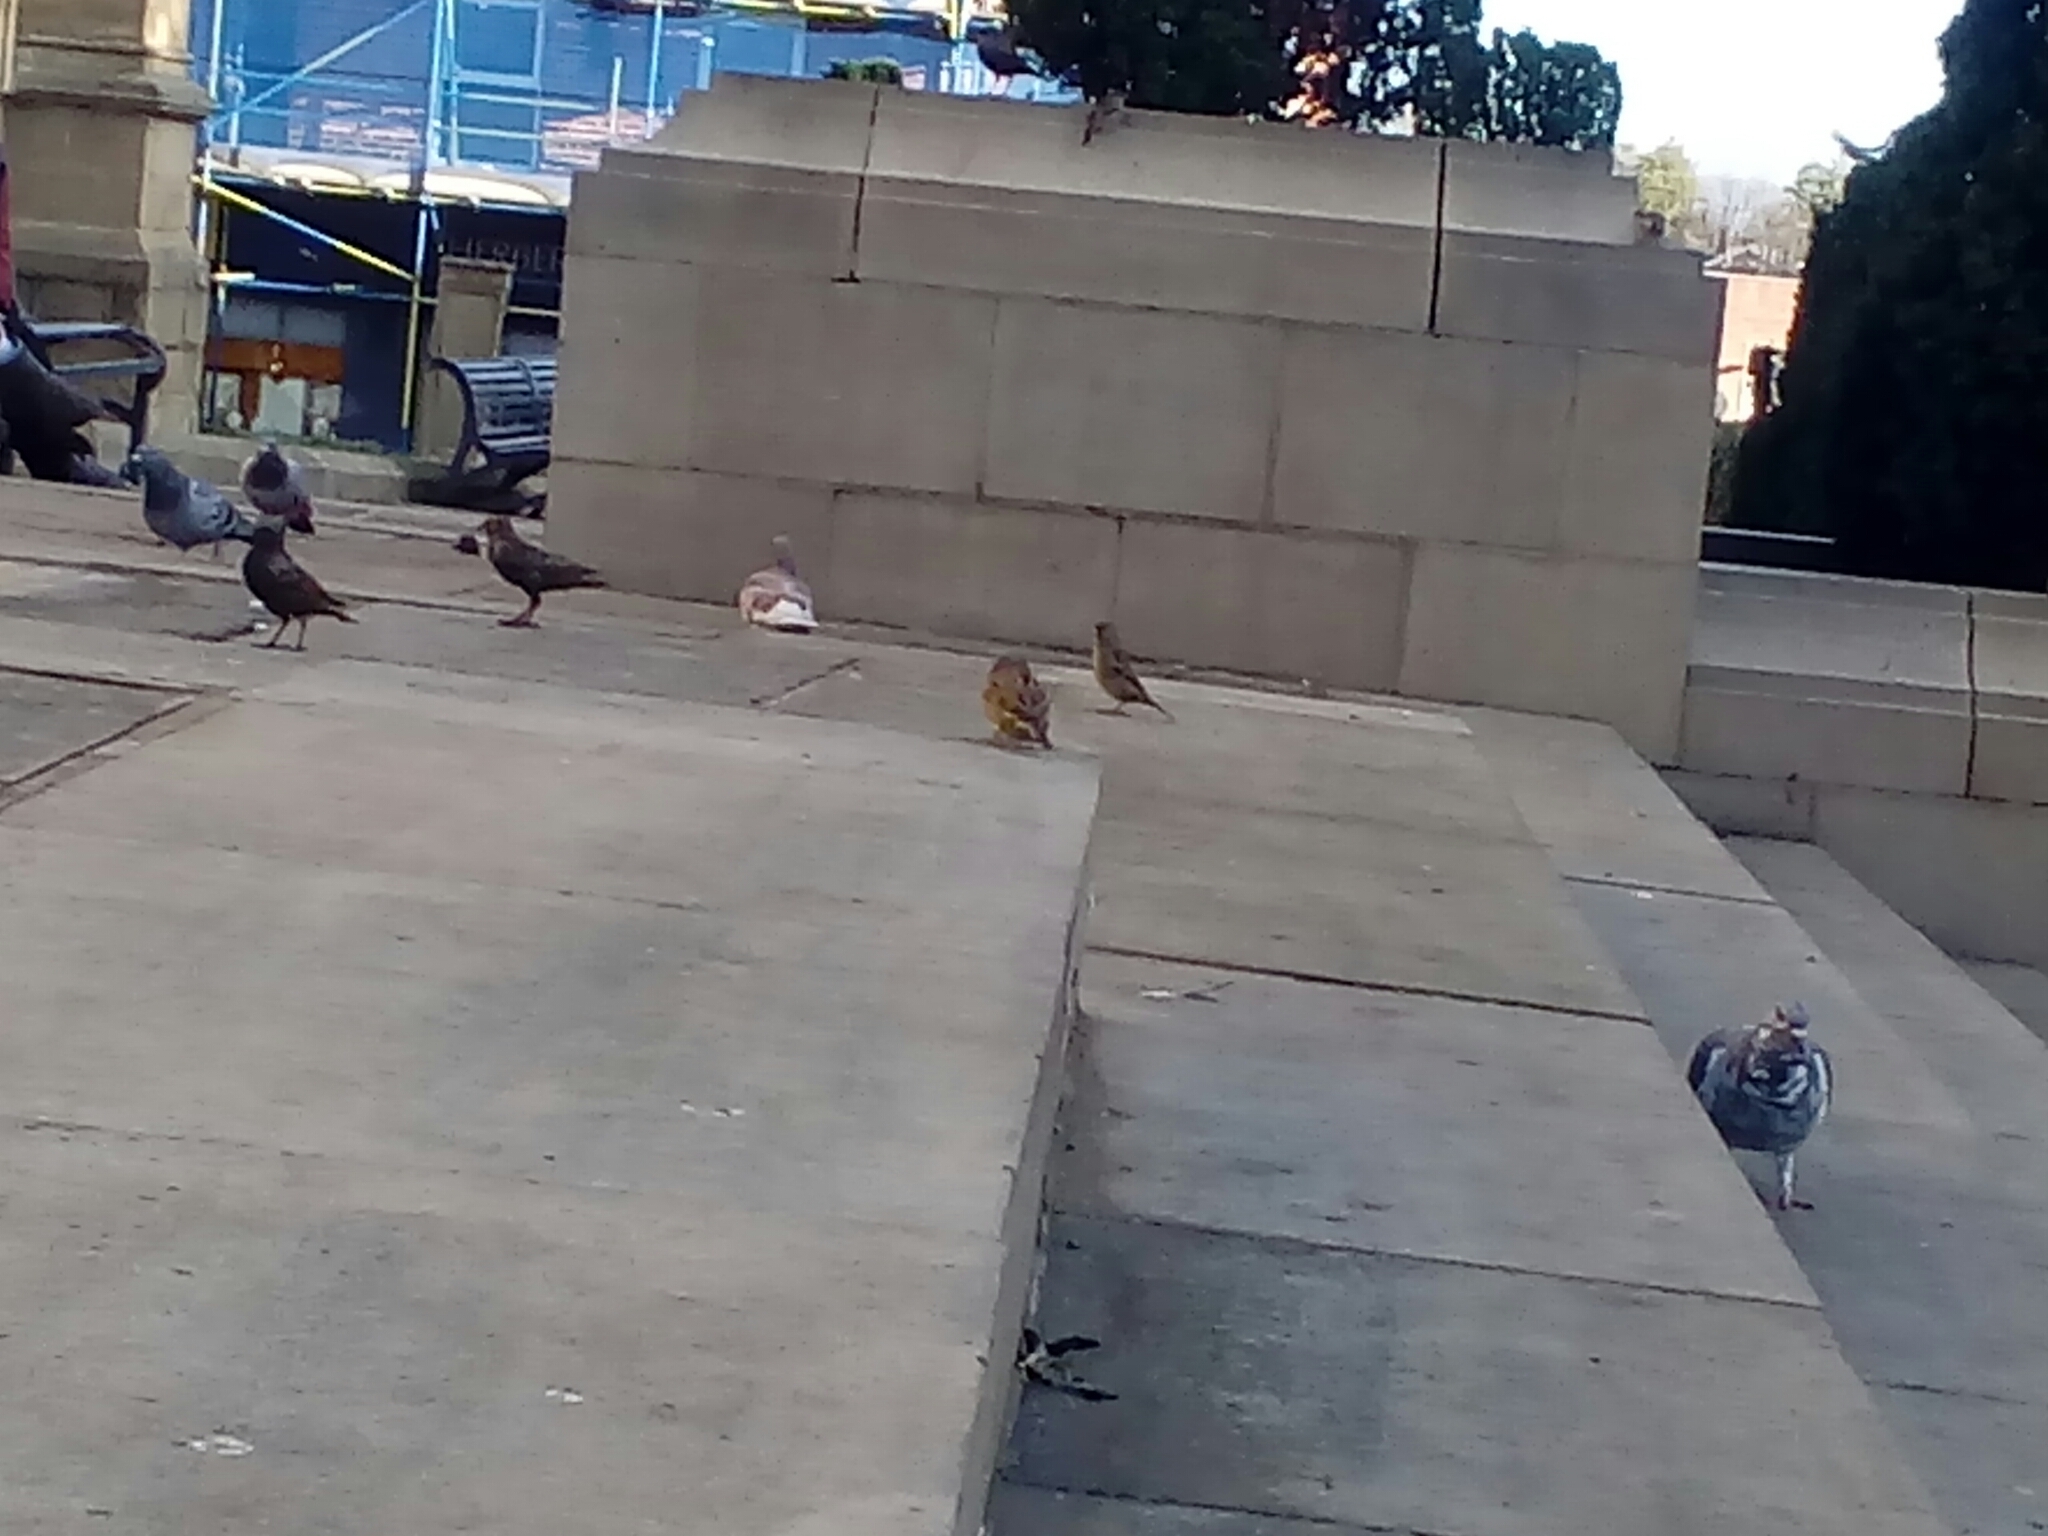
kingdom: Animalia
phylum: Chordata
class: Aves
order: Passeriformes
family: Passeridae
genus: Passer
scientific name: Passer domesticus
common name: House sparrow
